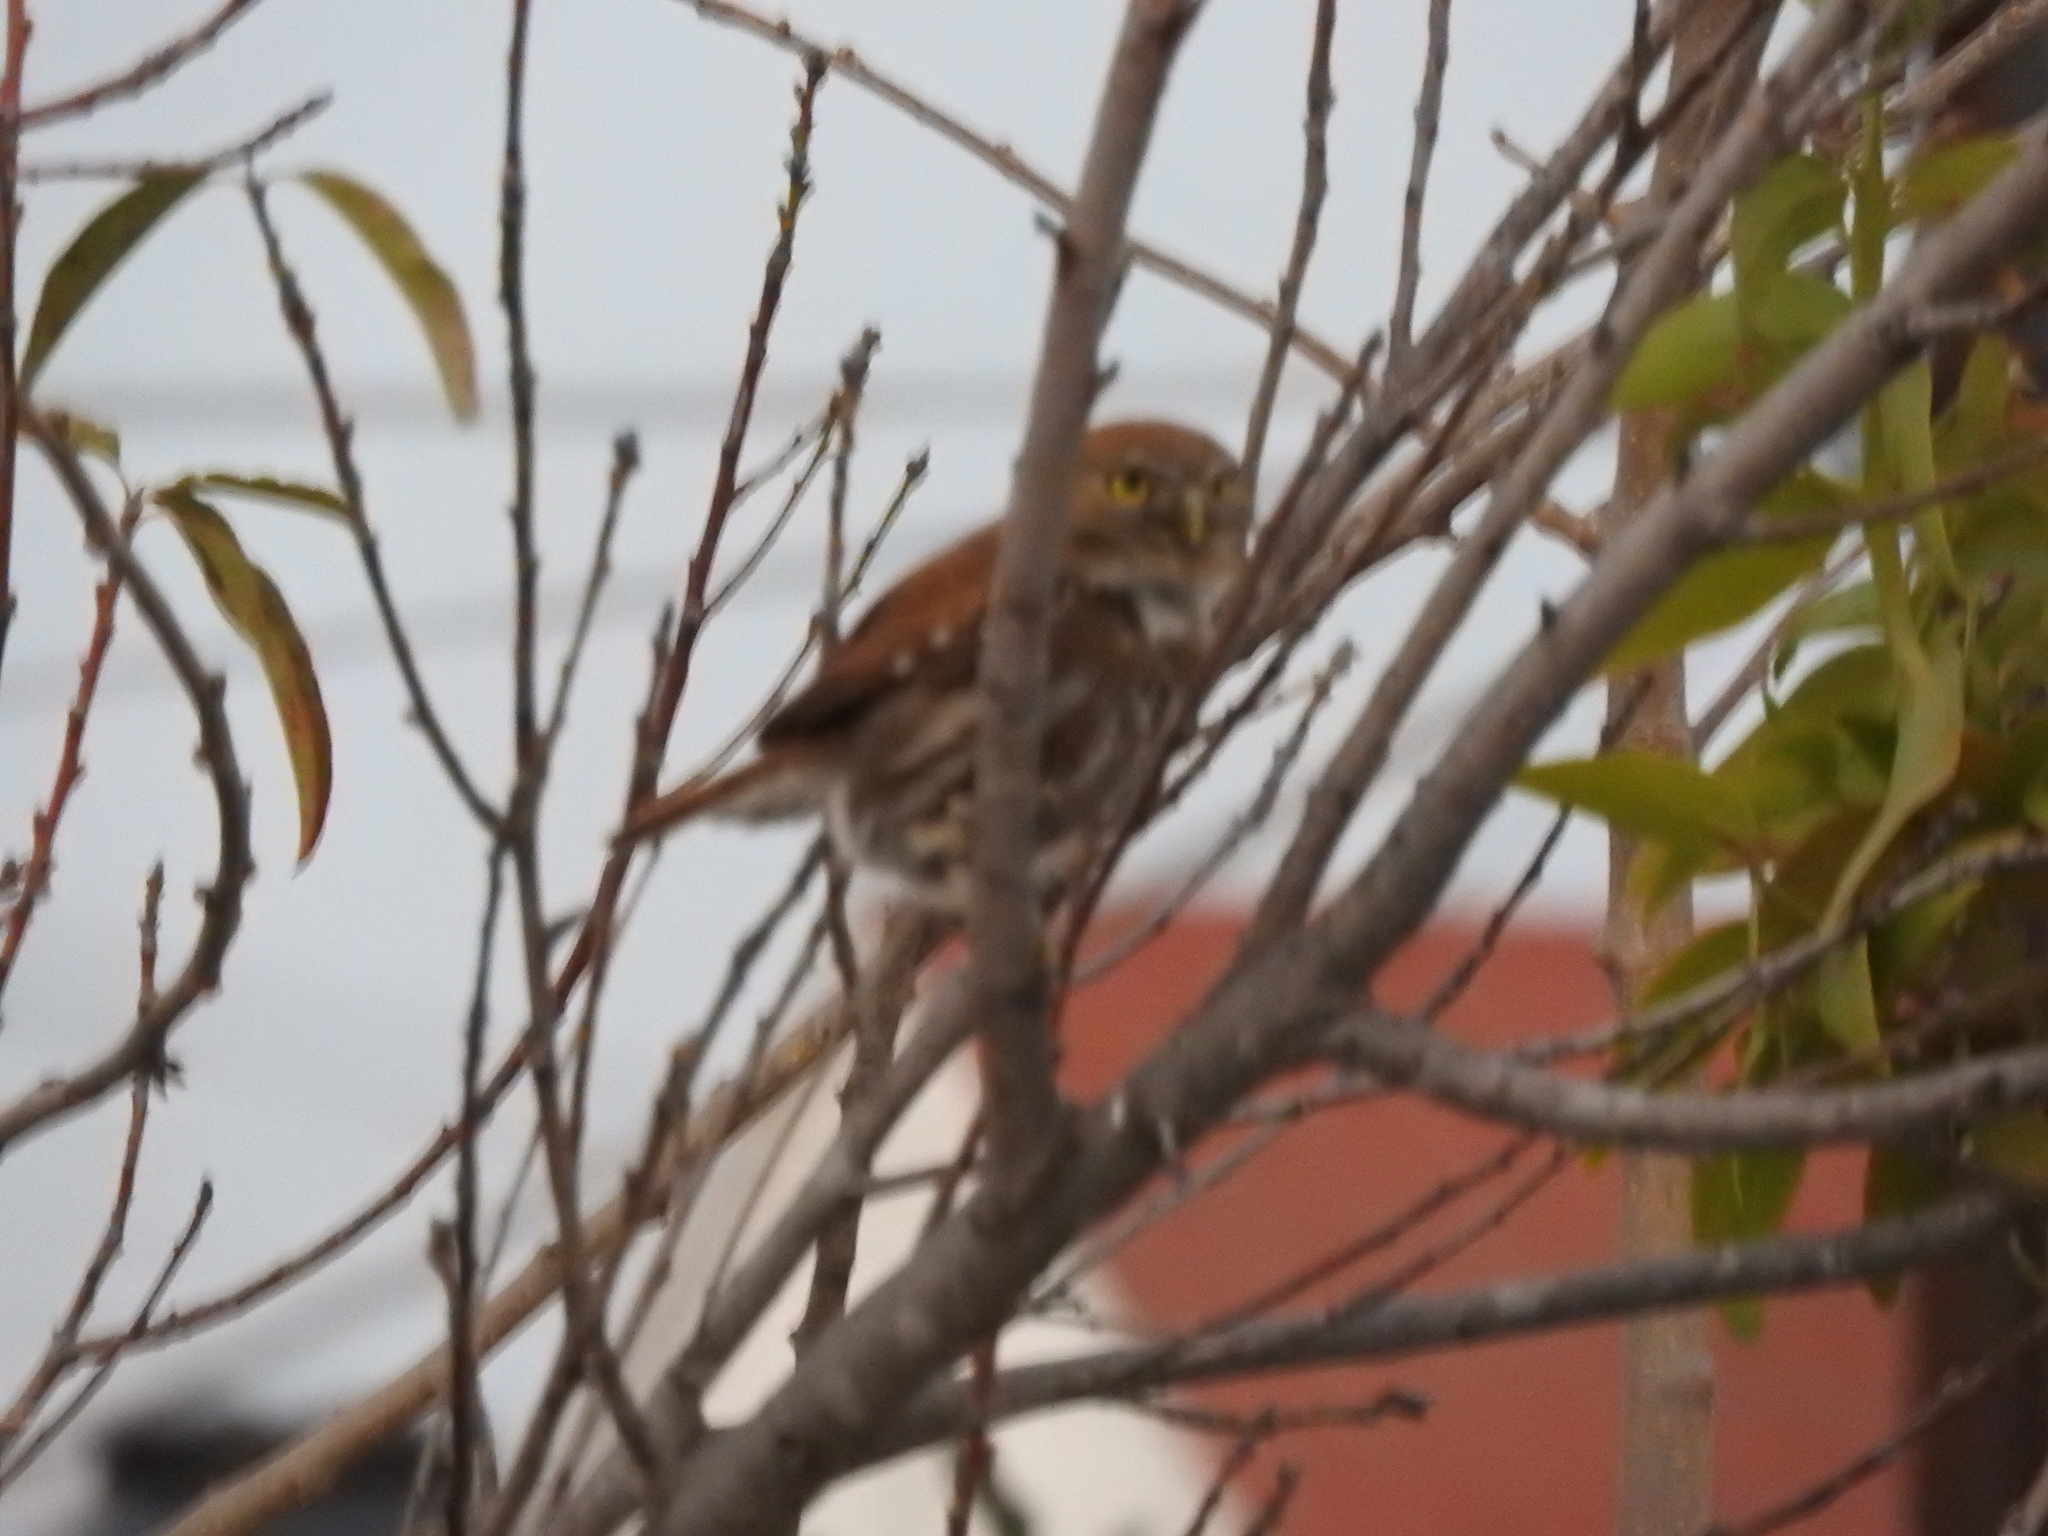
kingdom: Animalia
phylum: Chordata
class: Aves
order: Strigiformes
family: Strigidae
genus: Glaucidium
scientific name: Glaucidium brasilianum
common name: Ferruginous pygmy-owl
